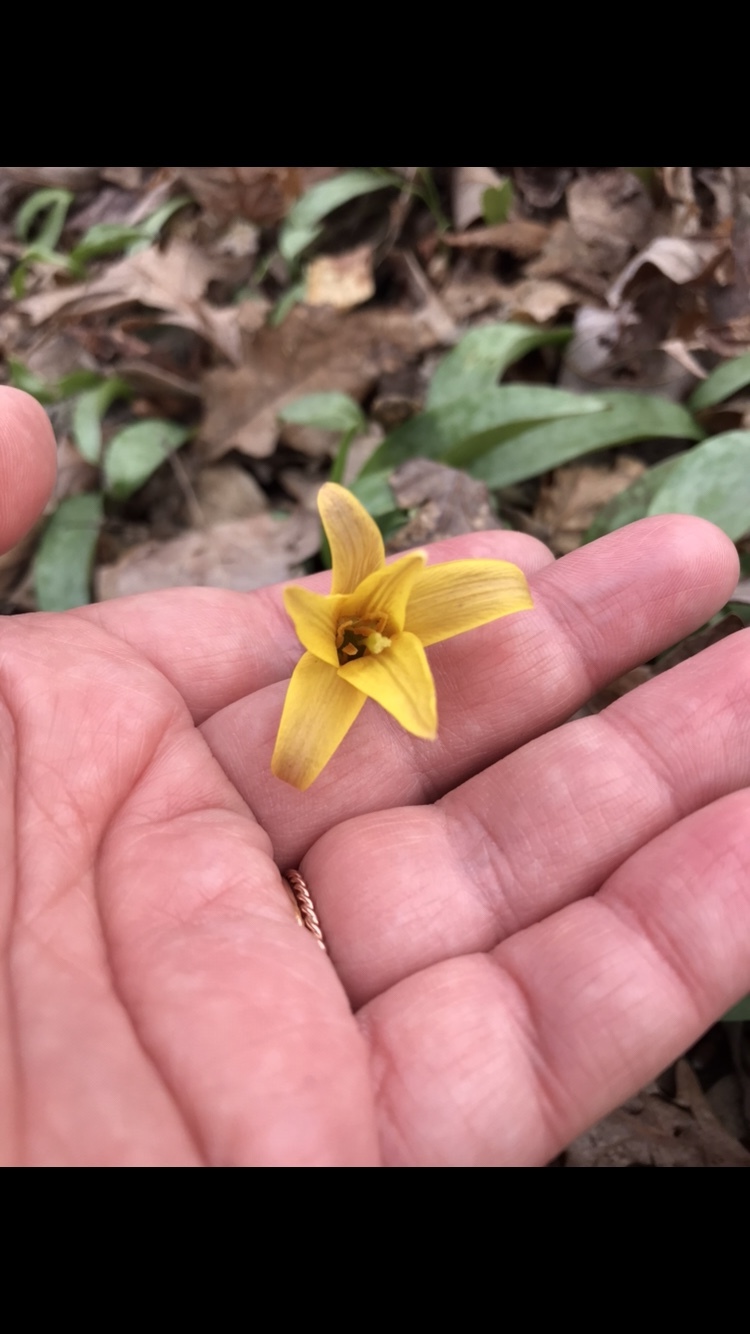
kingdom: Plantae
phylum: Tracheophyta
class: Liliopsida
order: Liliales
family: Liliaceae
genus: Erythronium
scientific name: Erythronium americanum
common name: Yellow adder's-tongue
